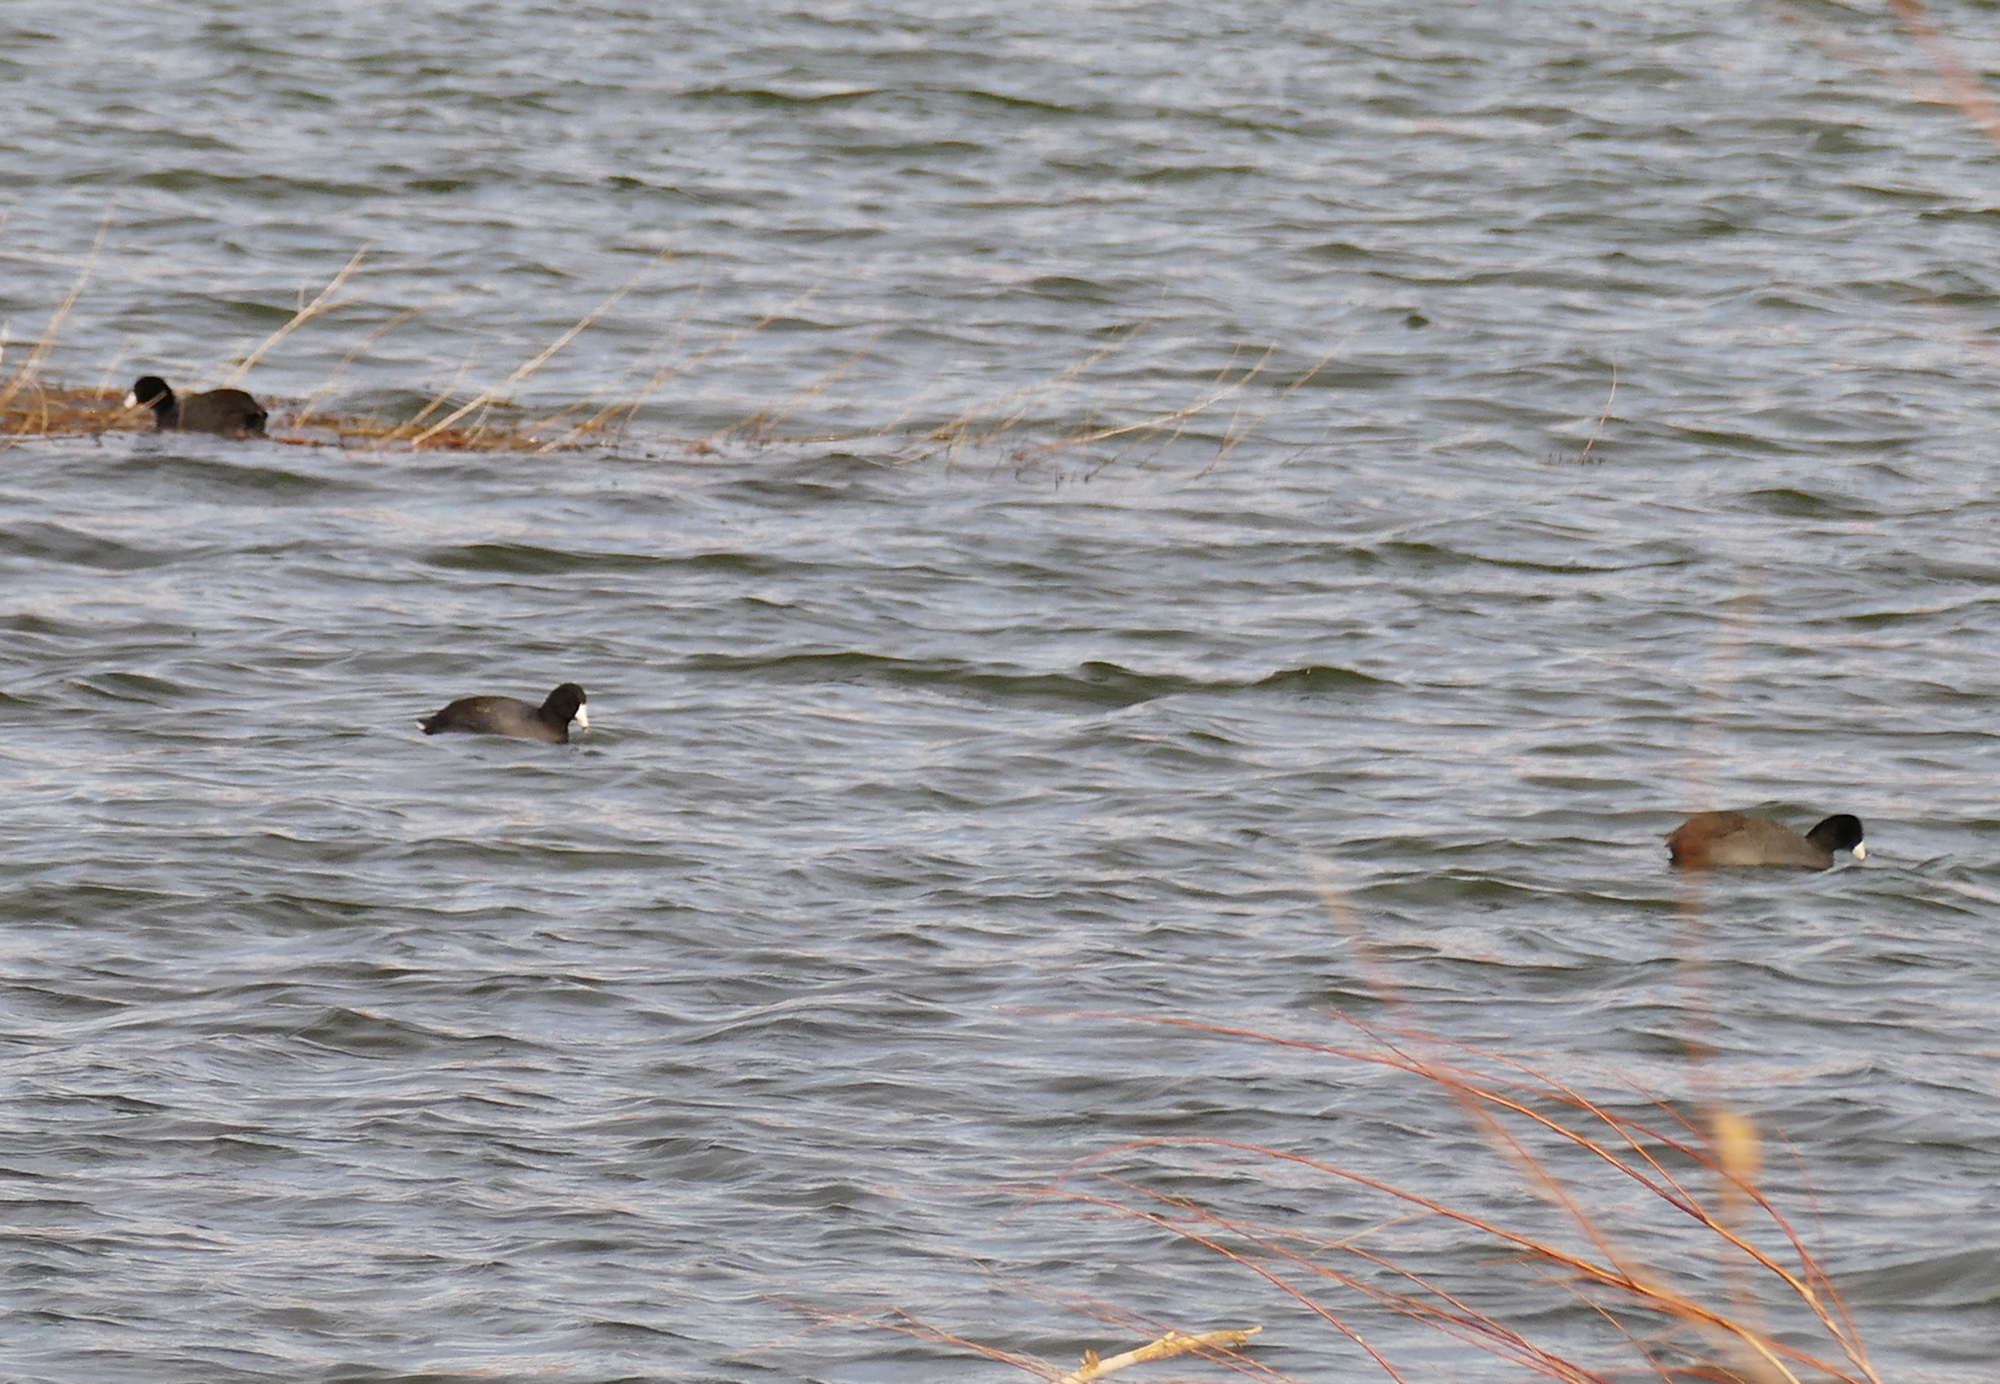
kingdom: Animalia
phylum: Chordata
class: Aves
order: Gruiformes
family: Rallidae
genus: Fulica
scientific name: Fulica americana
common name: American coot
